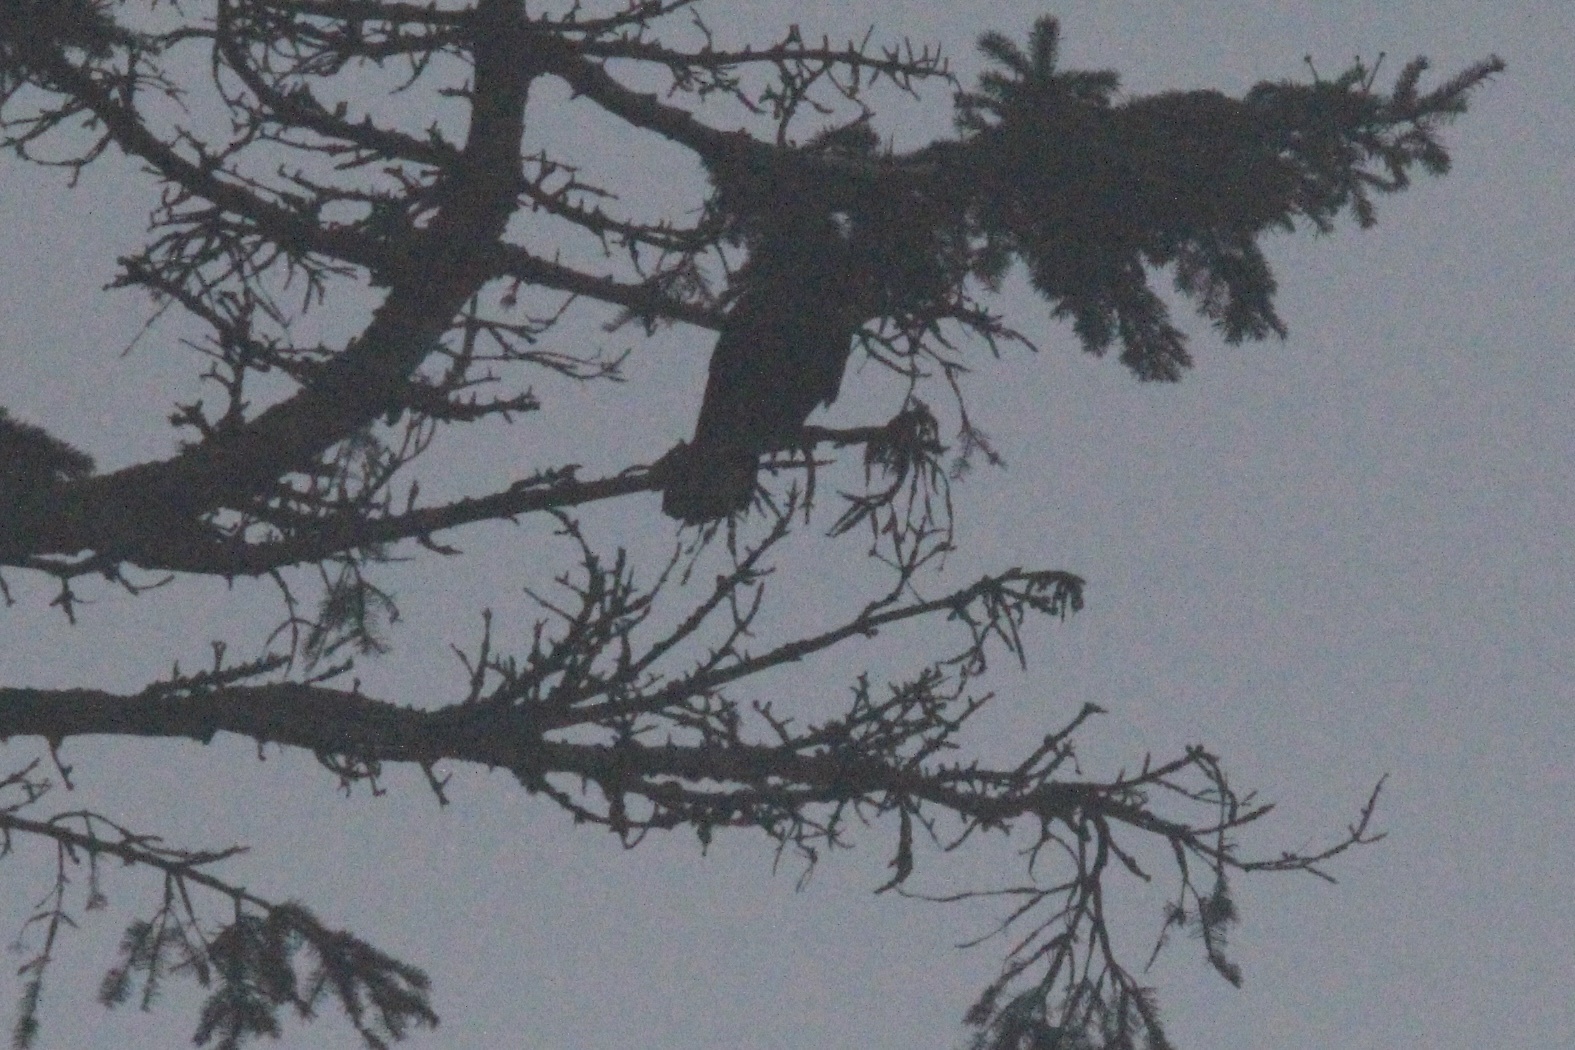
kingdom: Animalia
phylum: Chordata
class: Aves
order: Passeriformes
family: Corvidae
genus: Corvus
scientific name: Corvus corax
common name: Common raven
